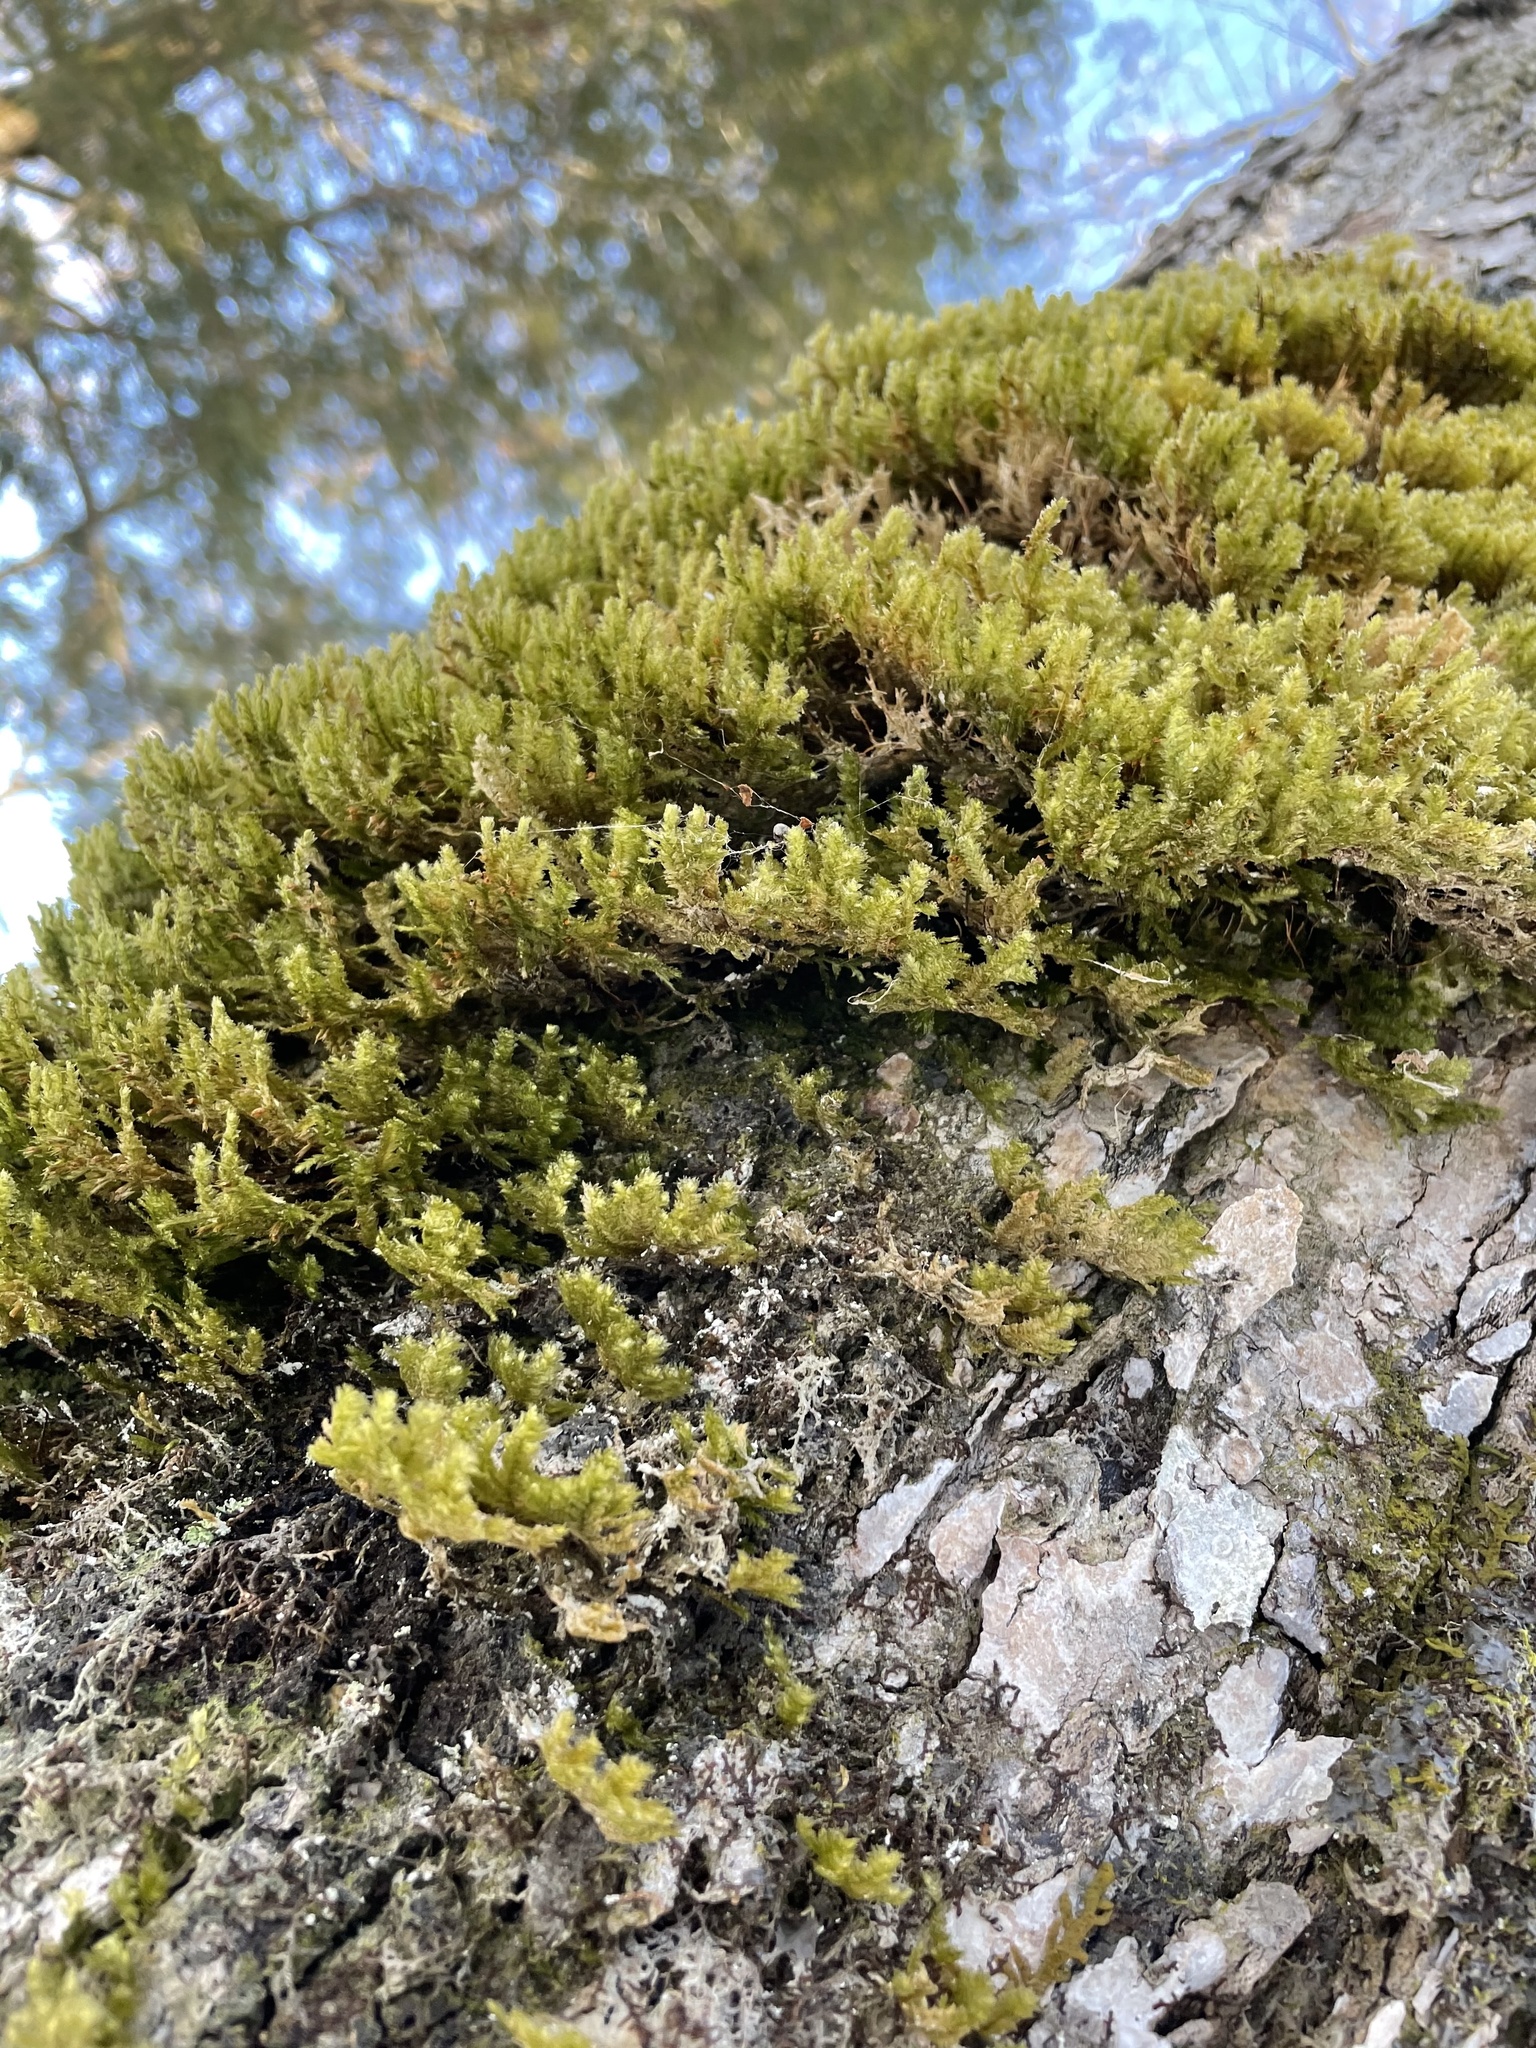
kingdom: Plantae
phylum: Bryophyta
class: Bryopsida
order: Hypnales
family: Neckeraceae
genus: Neckera
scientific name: Neckera pennata
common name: Feathery neckera
